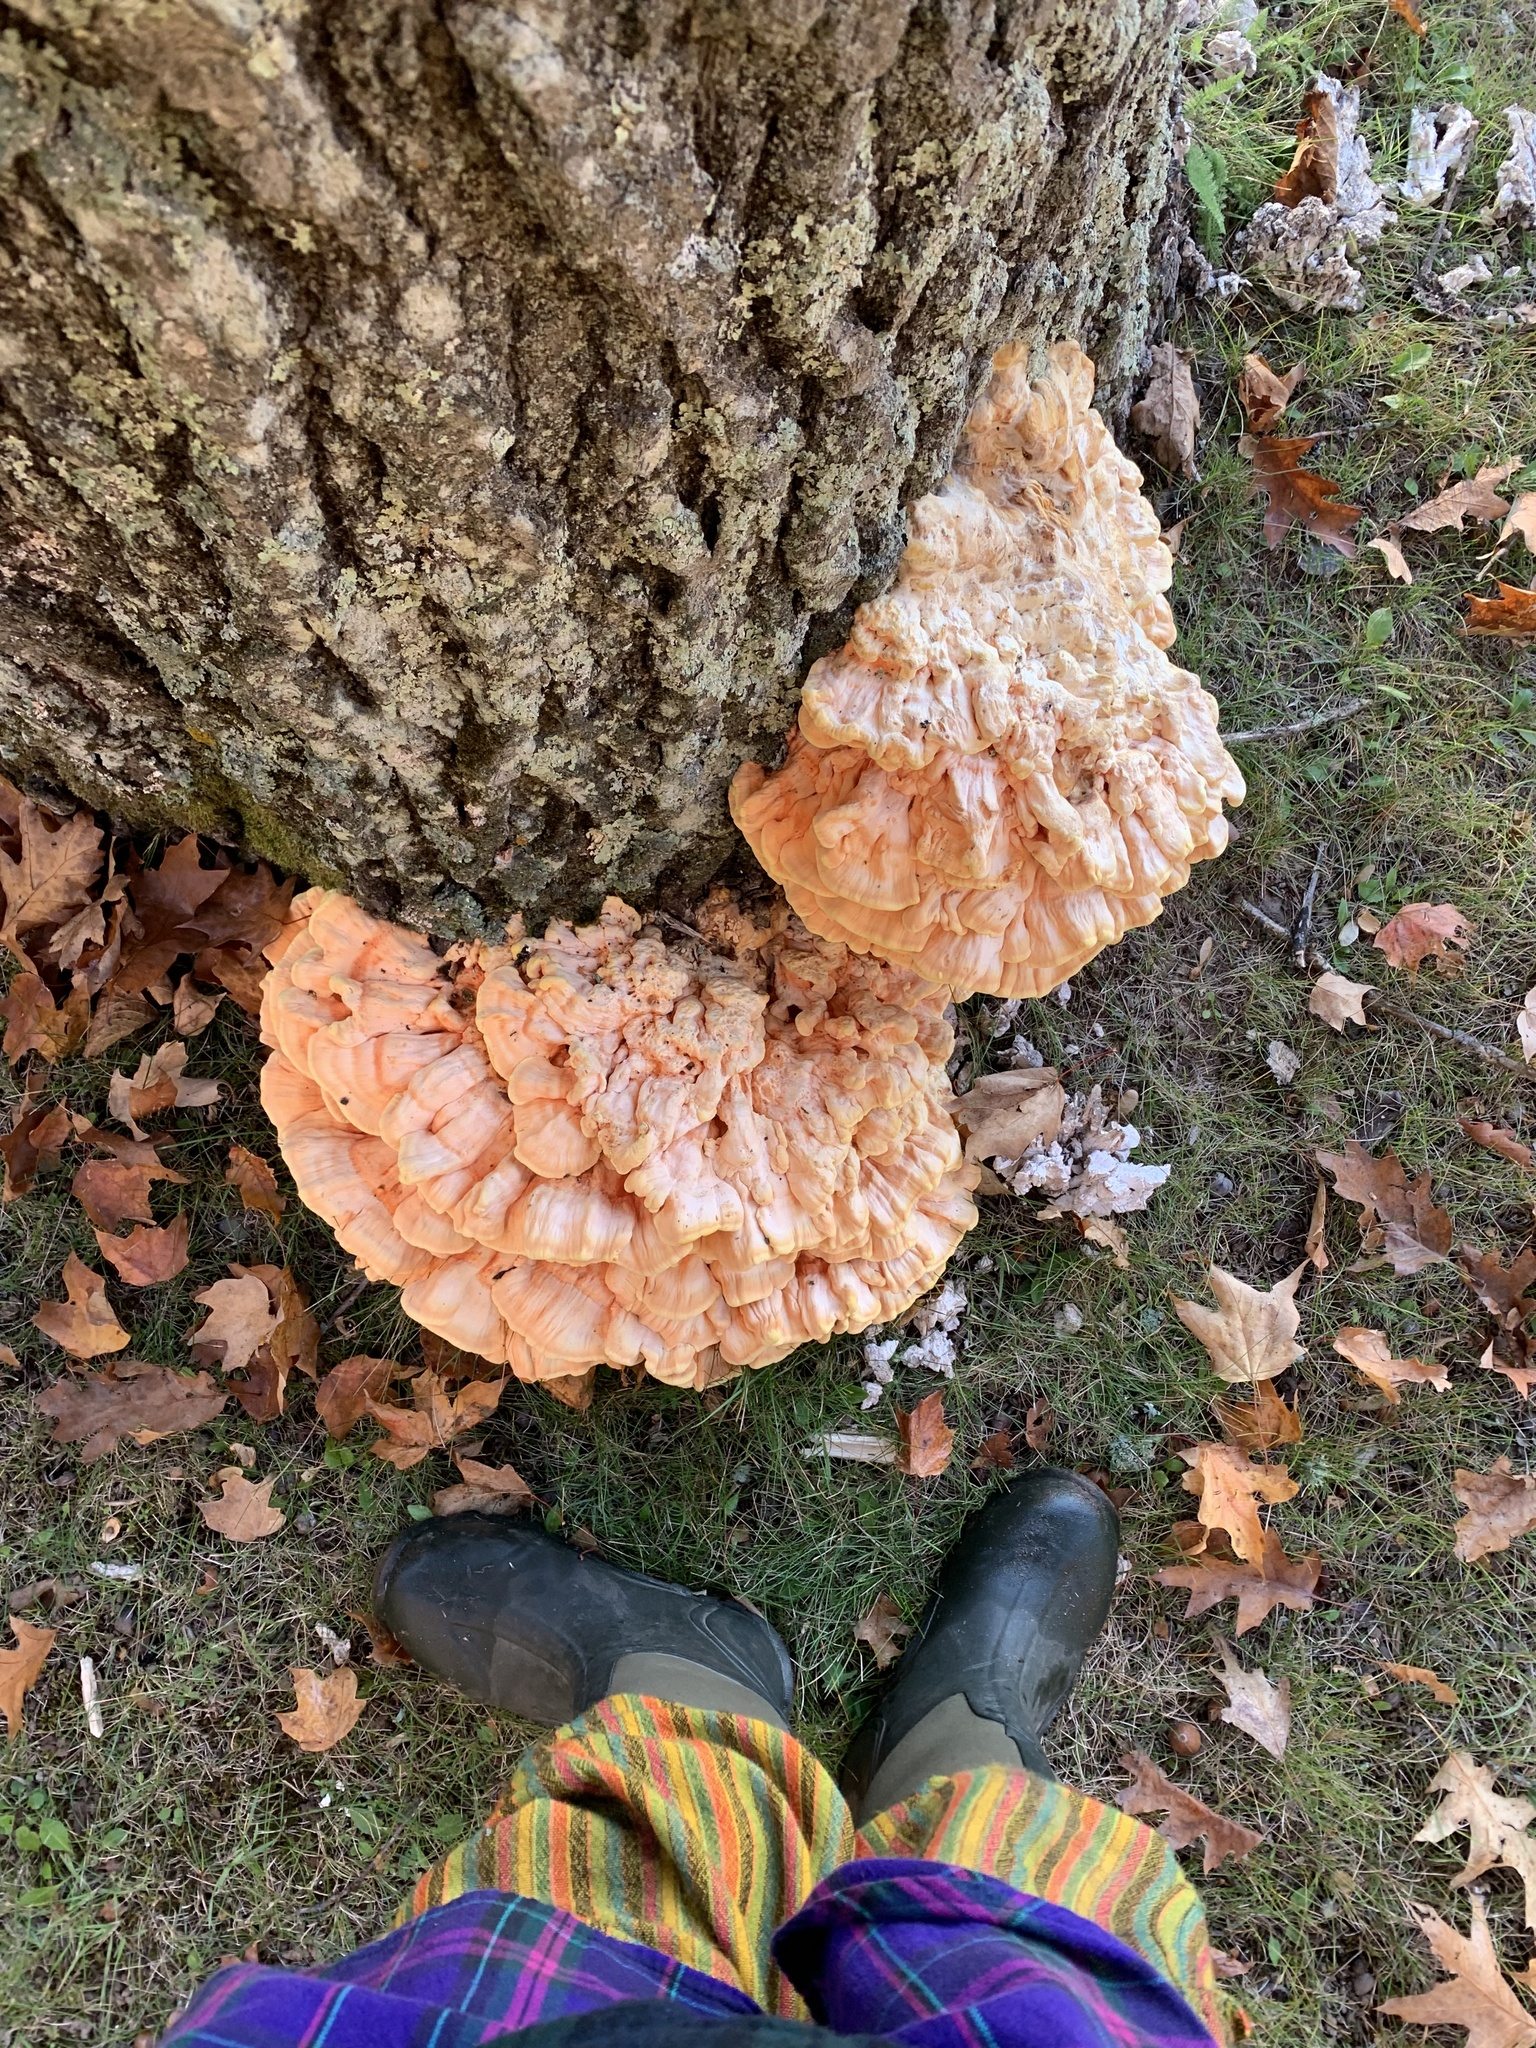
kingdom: Fungi
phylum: Basidiomycota
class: Agaricomycetes
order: Polyporales
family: Laetiporaceae
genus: Laetiporus
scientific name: Laetiporus sulphureus
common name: Chicken of the woods
